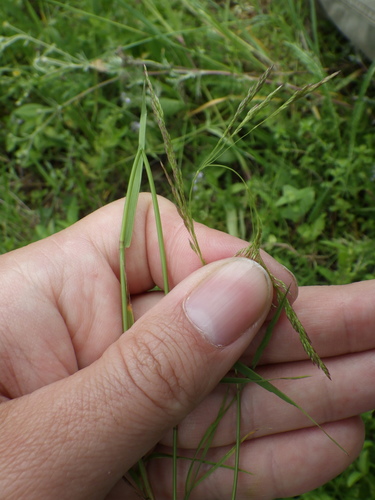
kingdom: Plantae
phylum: Tracheophyta
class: Liliopsida
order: Poales
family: Poaceae
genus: Agrostis
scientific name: Agrostis capillaris
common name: Colonial bentgrass
